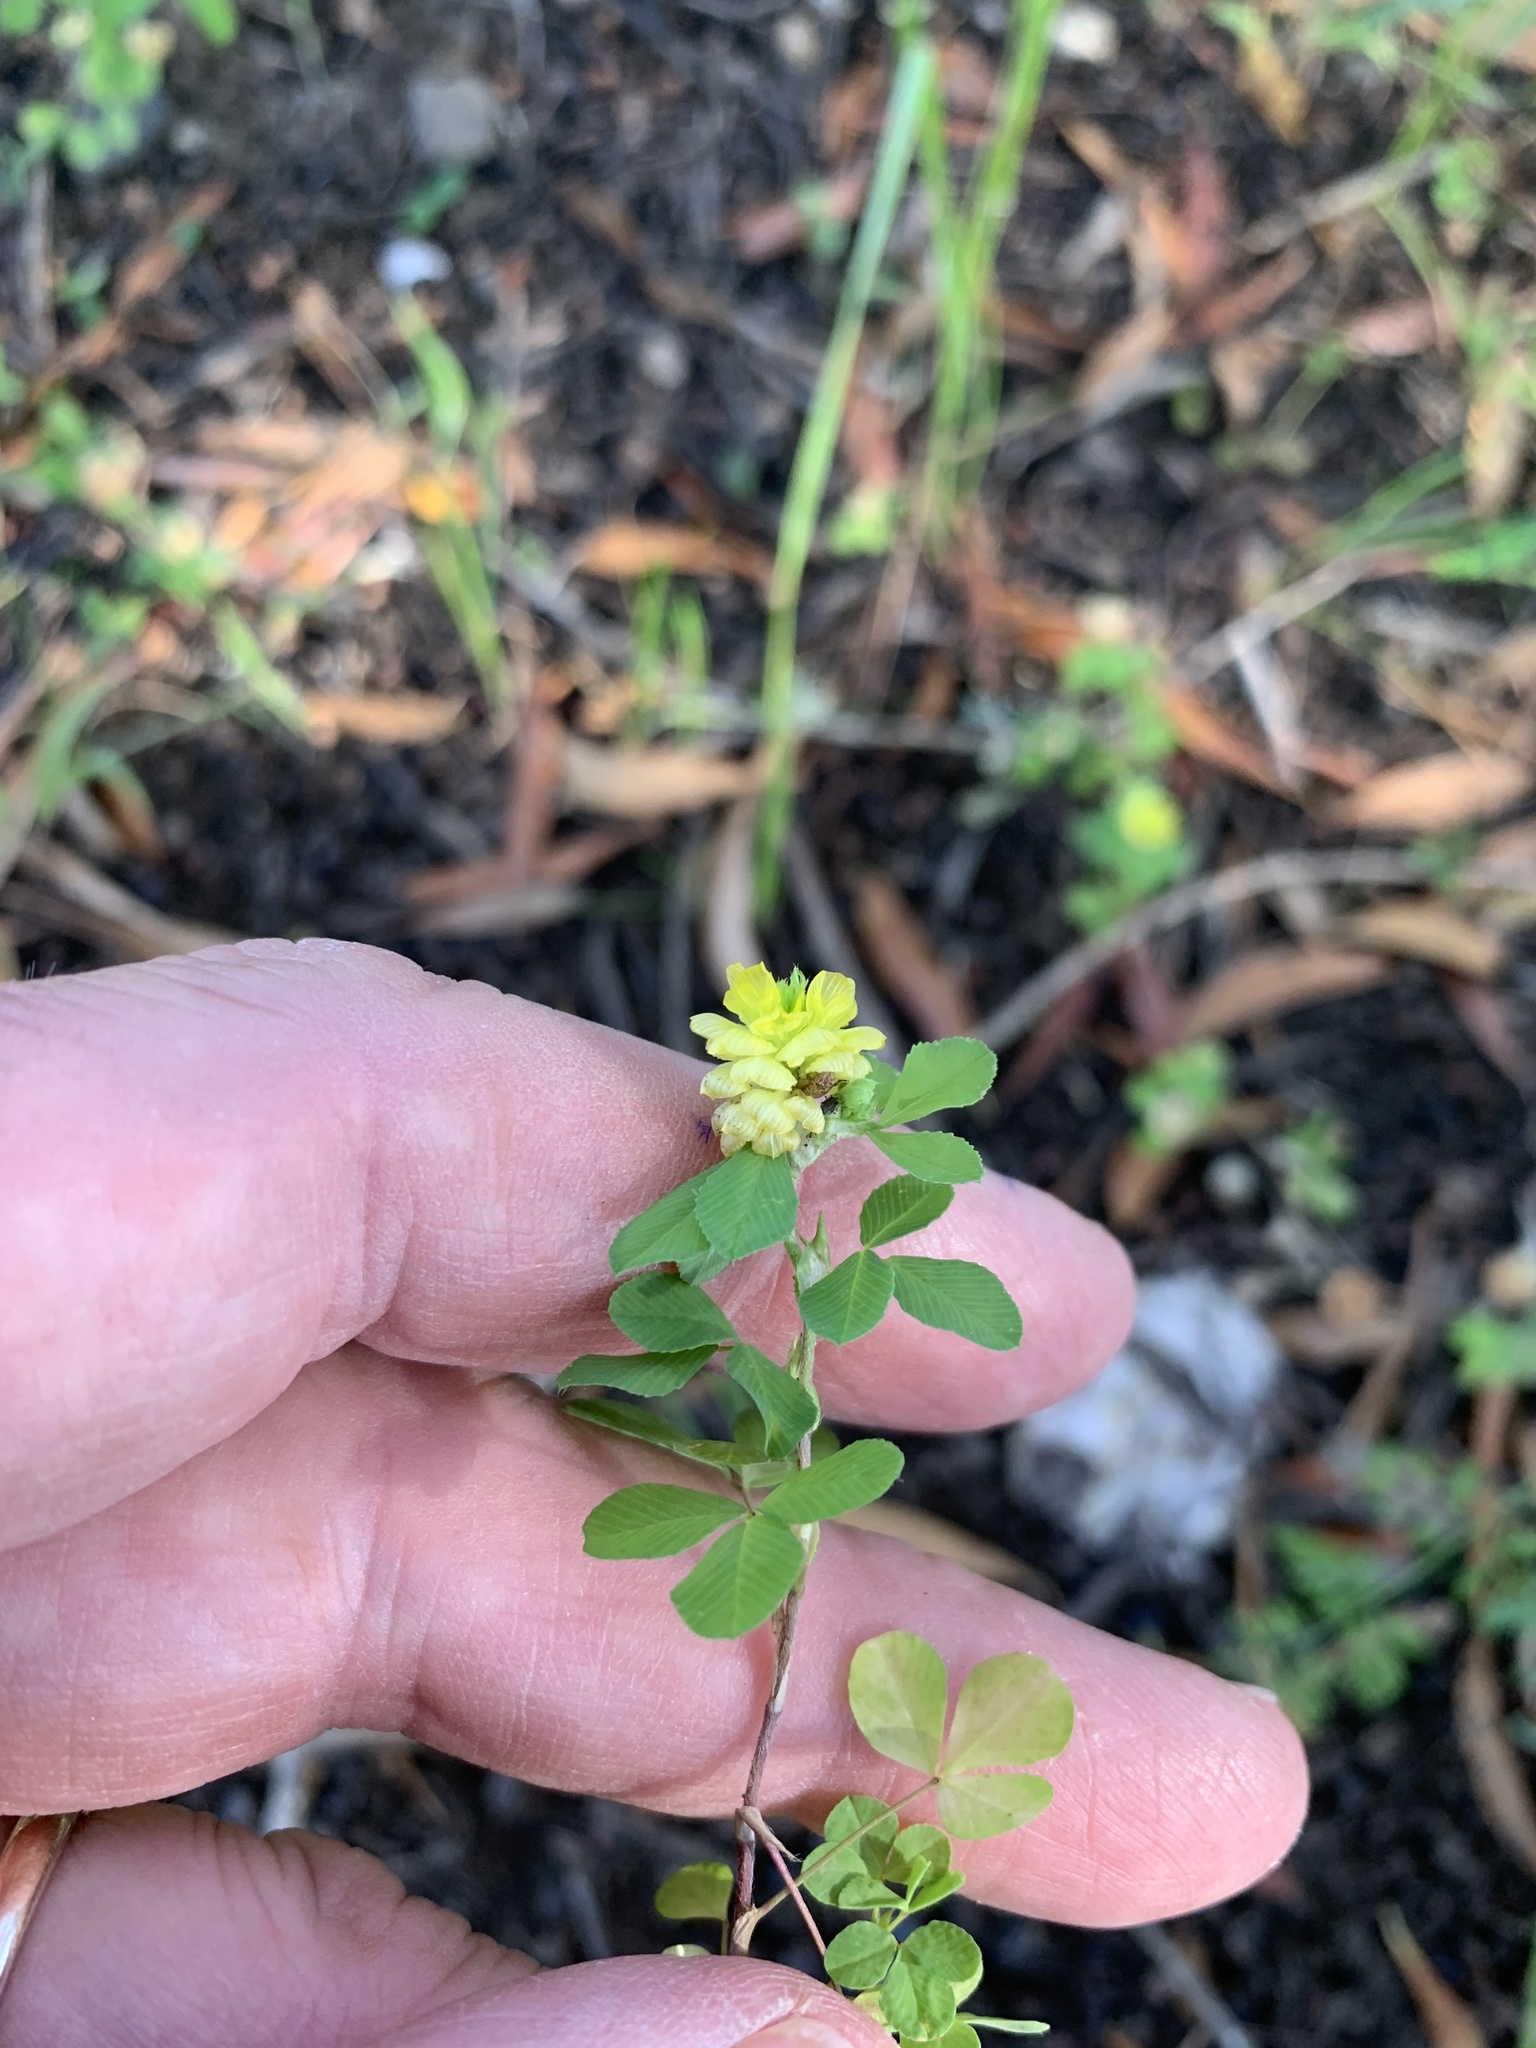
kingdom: Plantae
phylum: Tracheophyta
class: Magnoliopsida
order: Fabales
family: Fabaceae
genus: Trifolium
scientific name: Trifolium campestre
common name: Field clover
